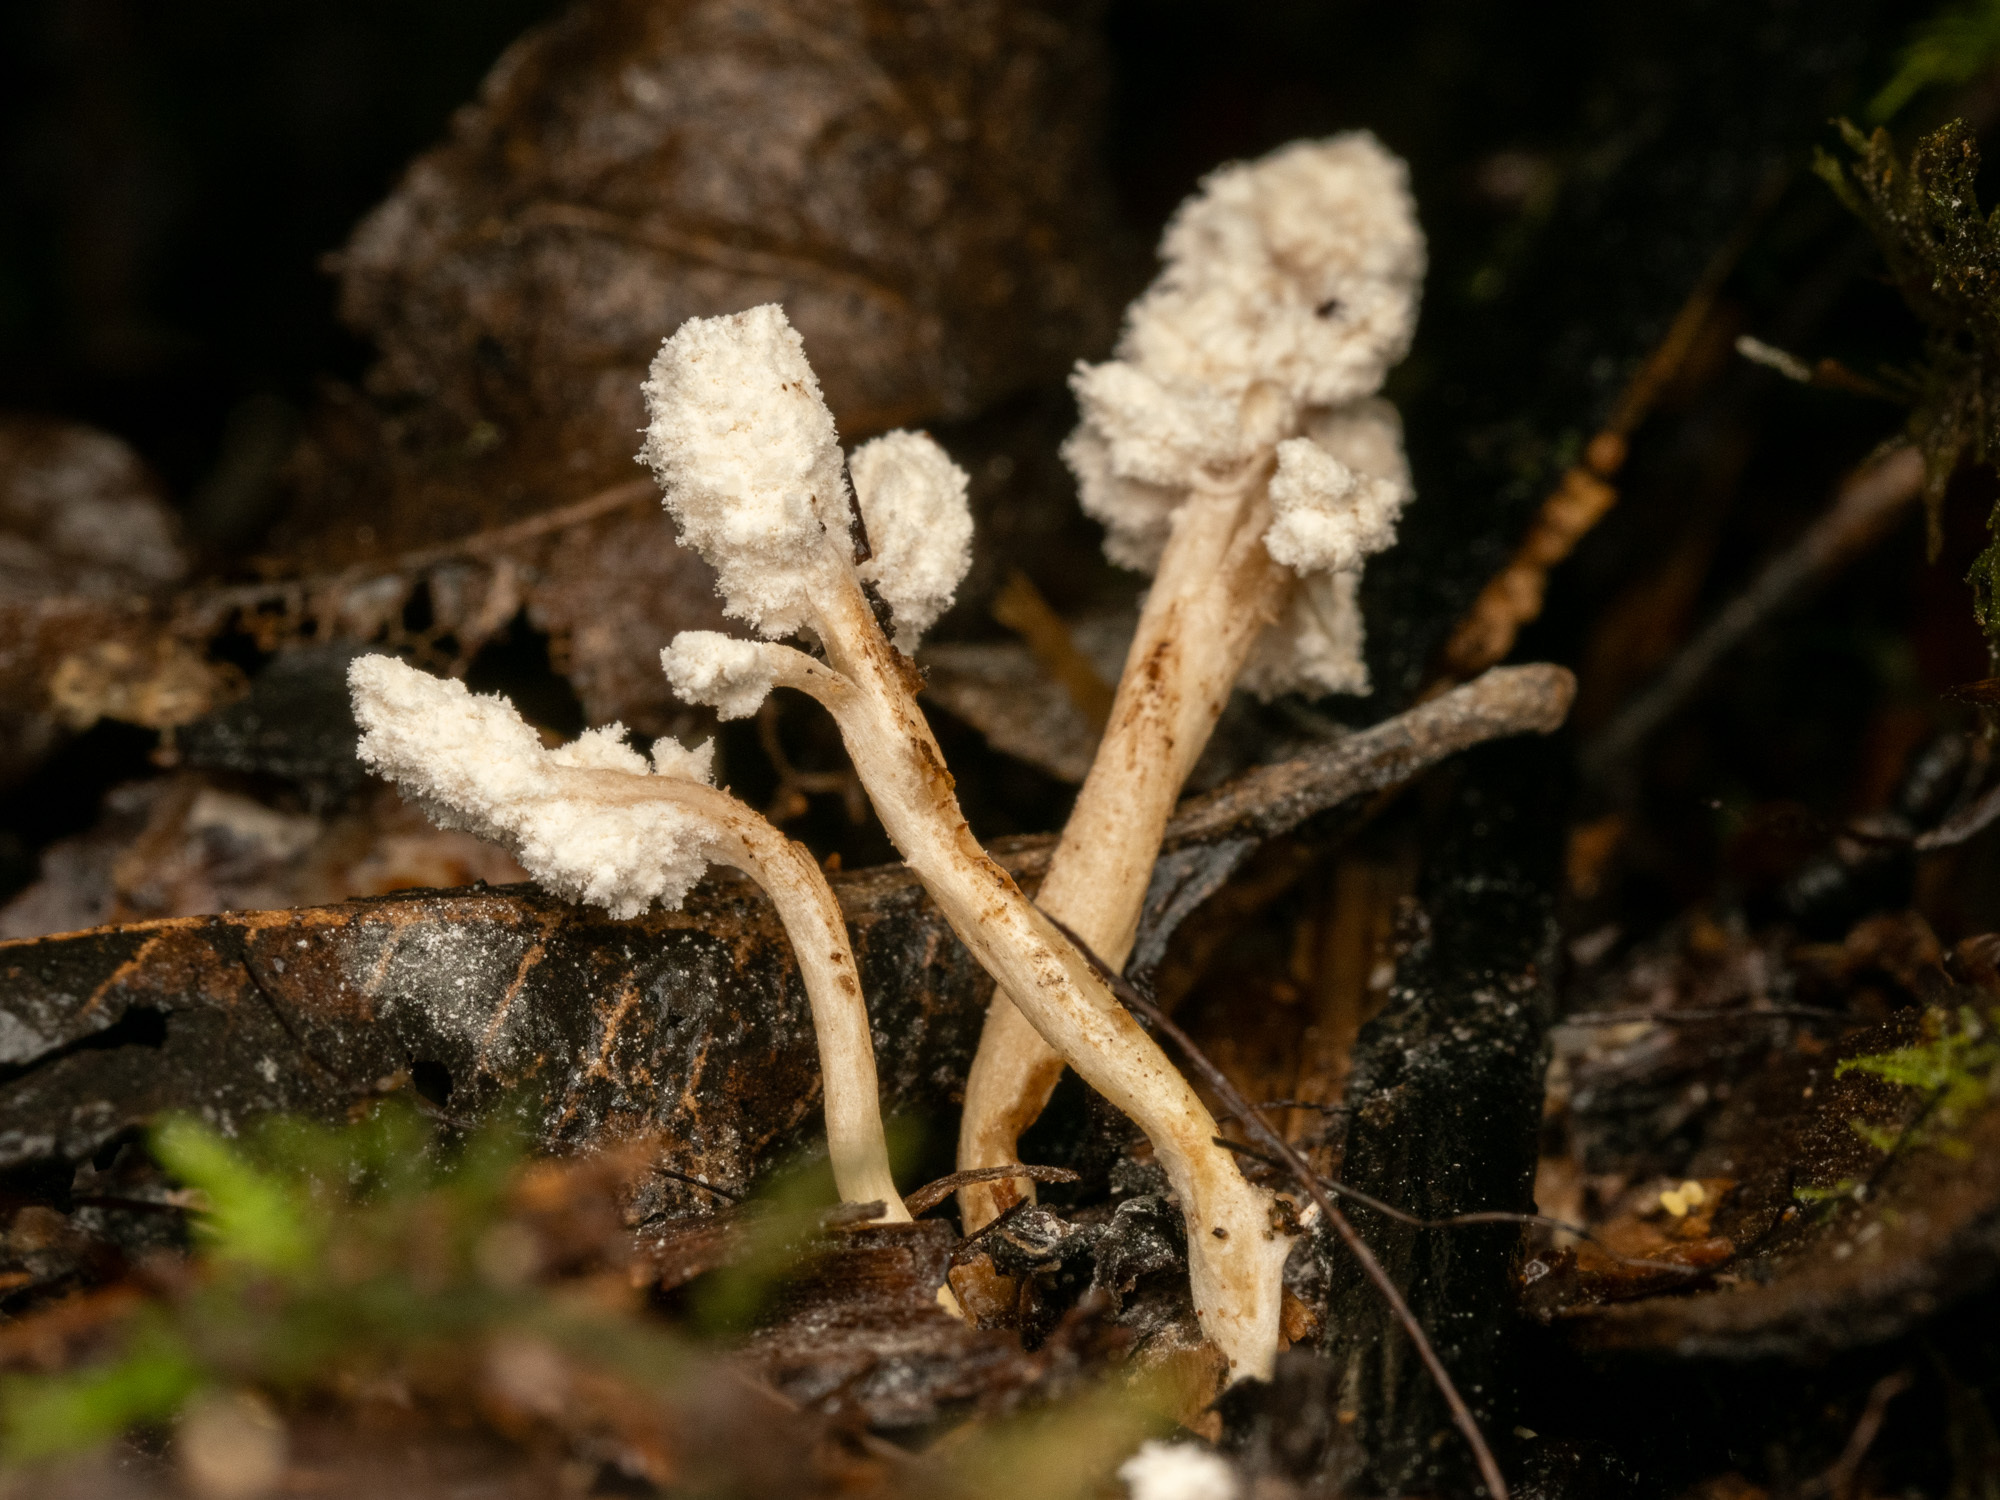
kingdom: Fungi
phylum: Ascomycota
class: Sordariomycetes
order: Hypocreales
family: Cordycipitaceae
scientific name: Cordycipitaceae
